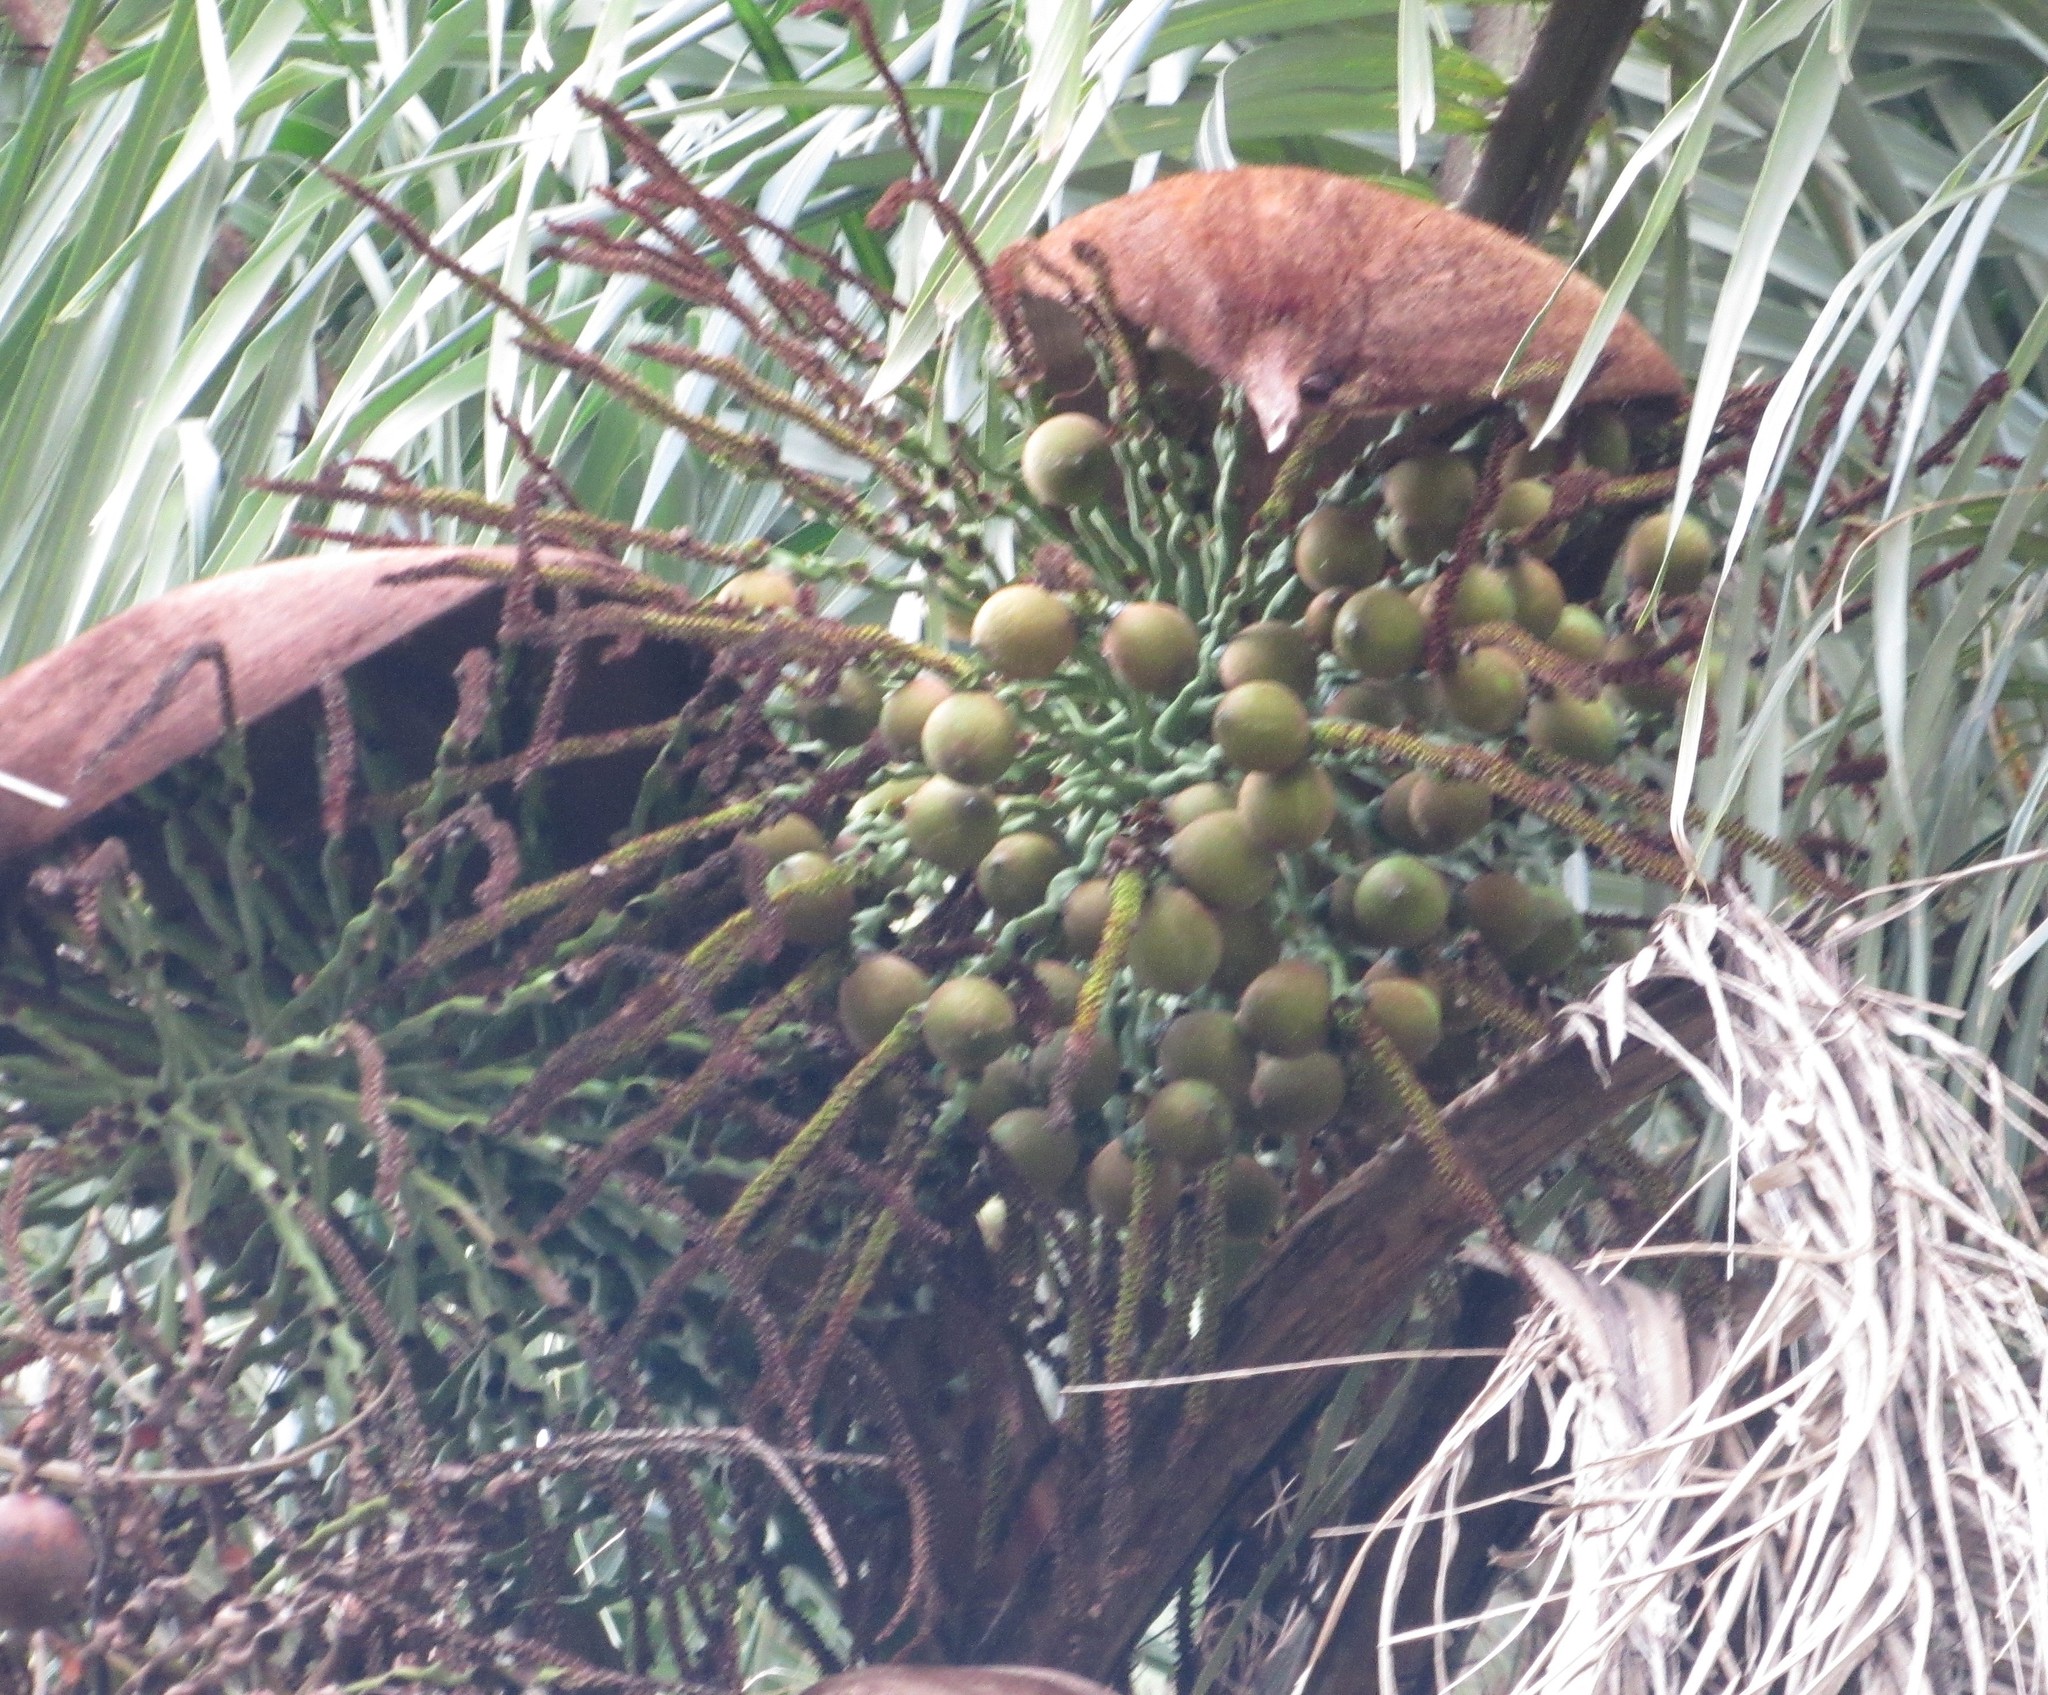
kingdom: Plantae
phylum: Tracheophyta
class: Liliopsida
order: Arecales
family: Arecaceae
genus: Acrocomia
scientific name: Acrocomia aculeata
